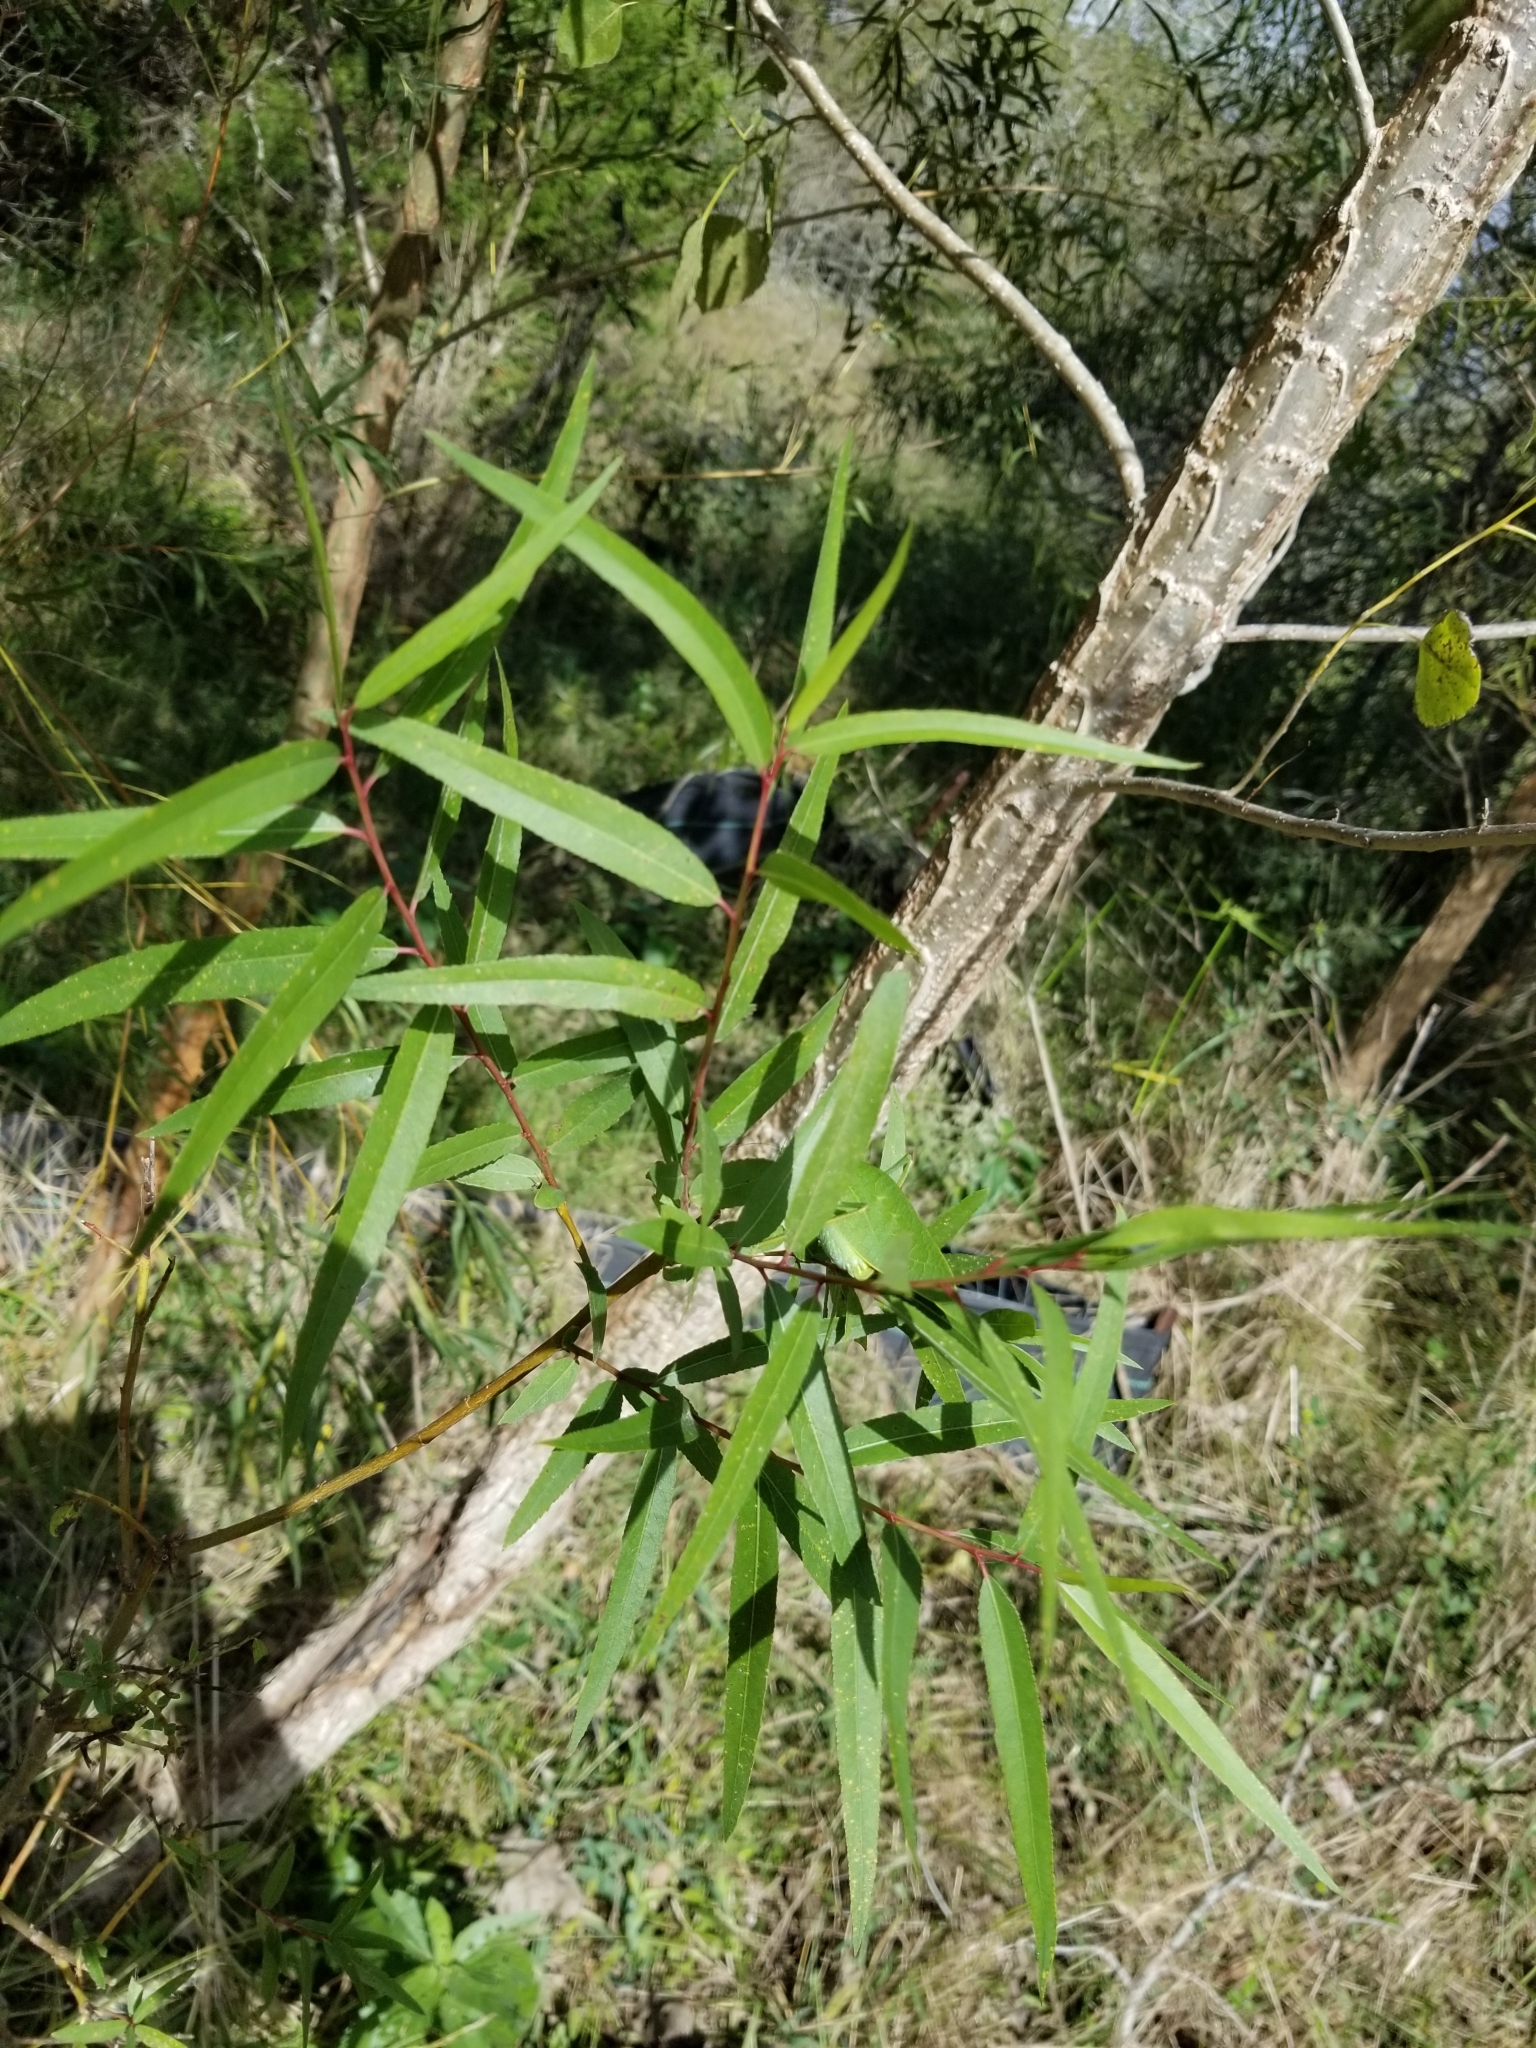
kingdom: Plantae
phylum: Tracheophyta
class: Magnoliopsida
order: Malpighiales
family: Salicaceae
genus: Salix
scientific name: Salix nigra
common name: Black willow
